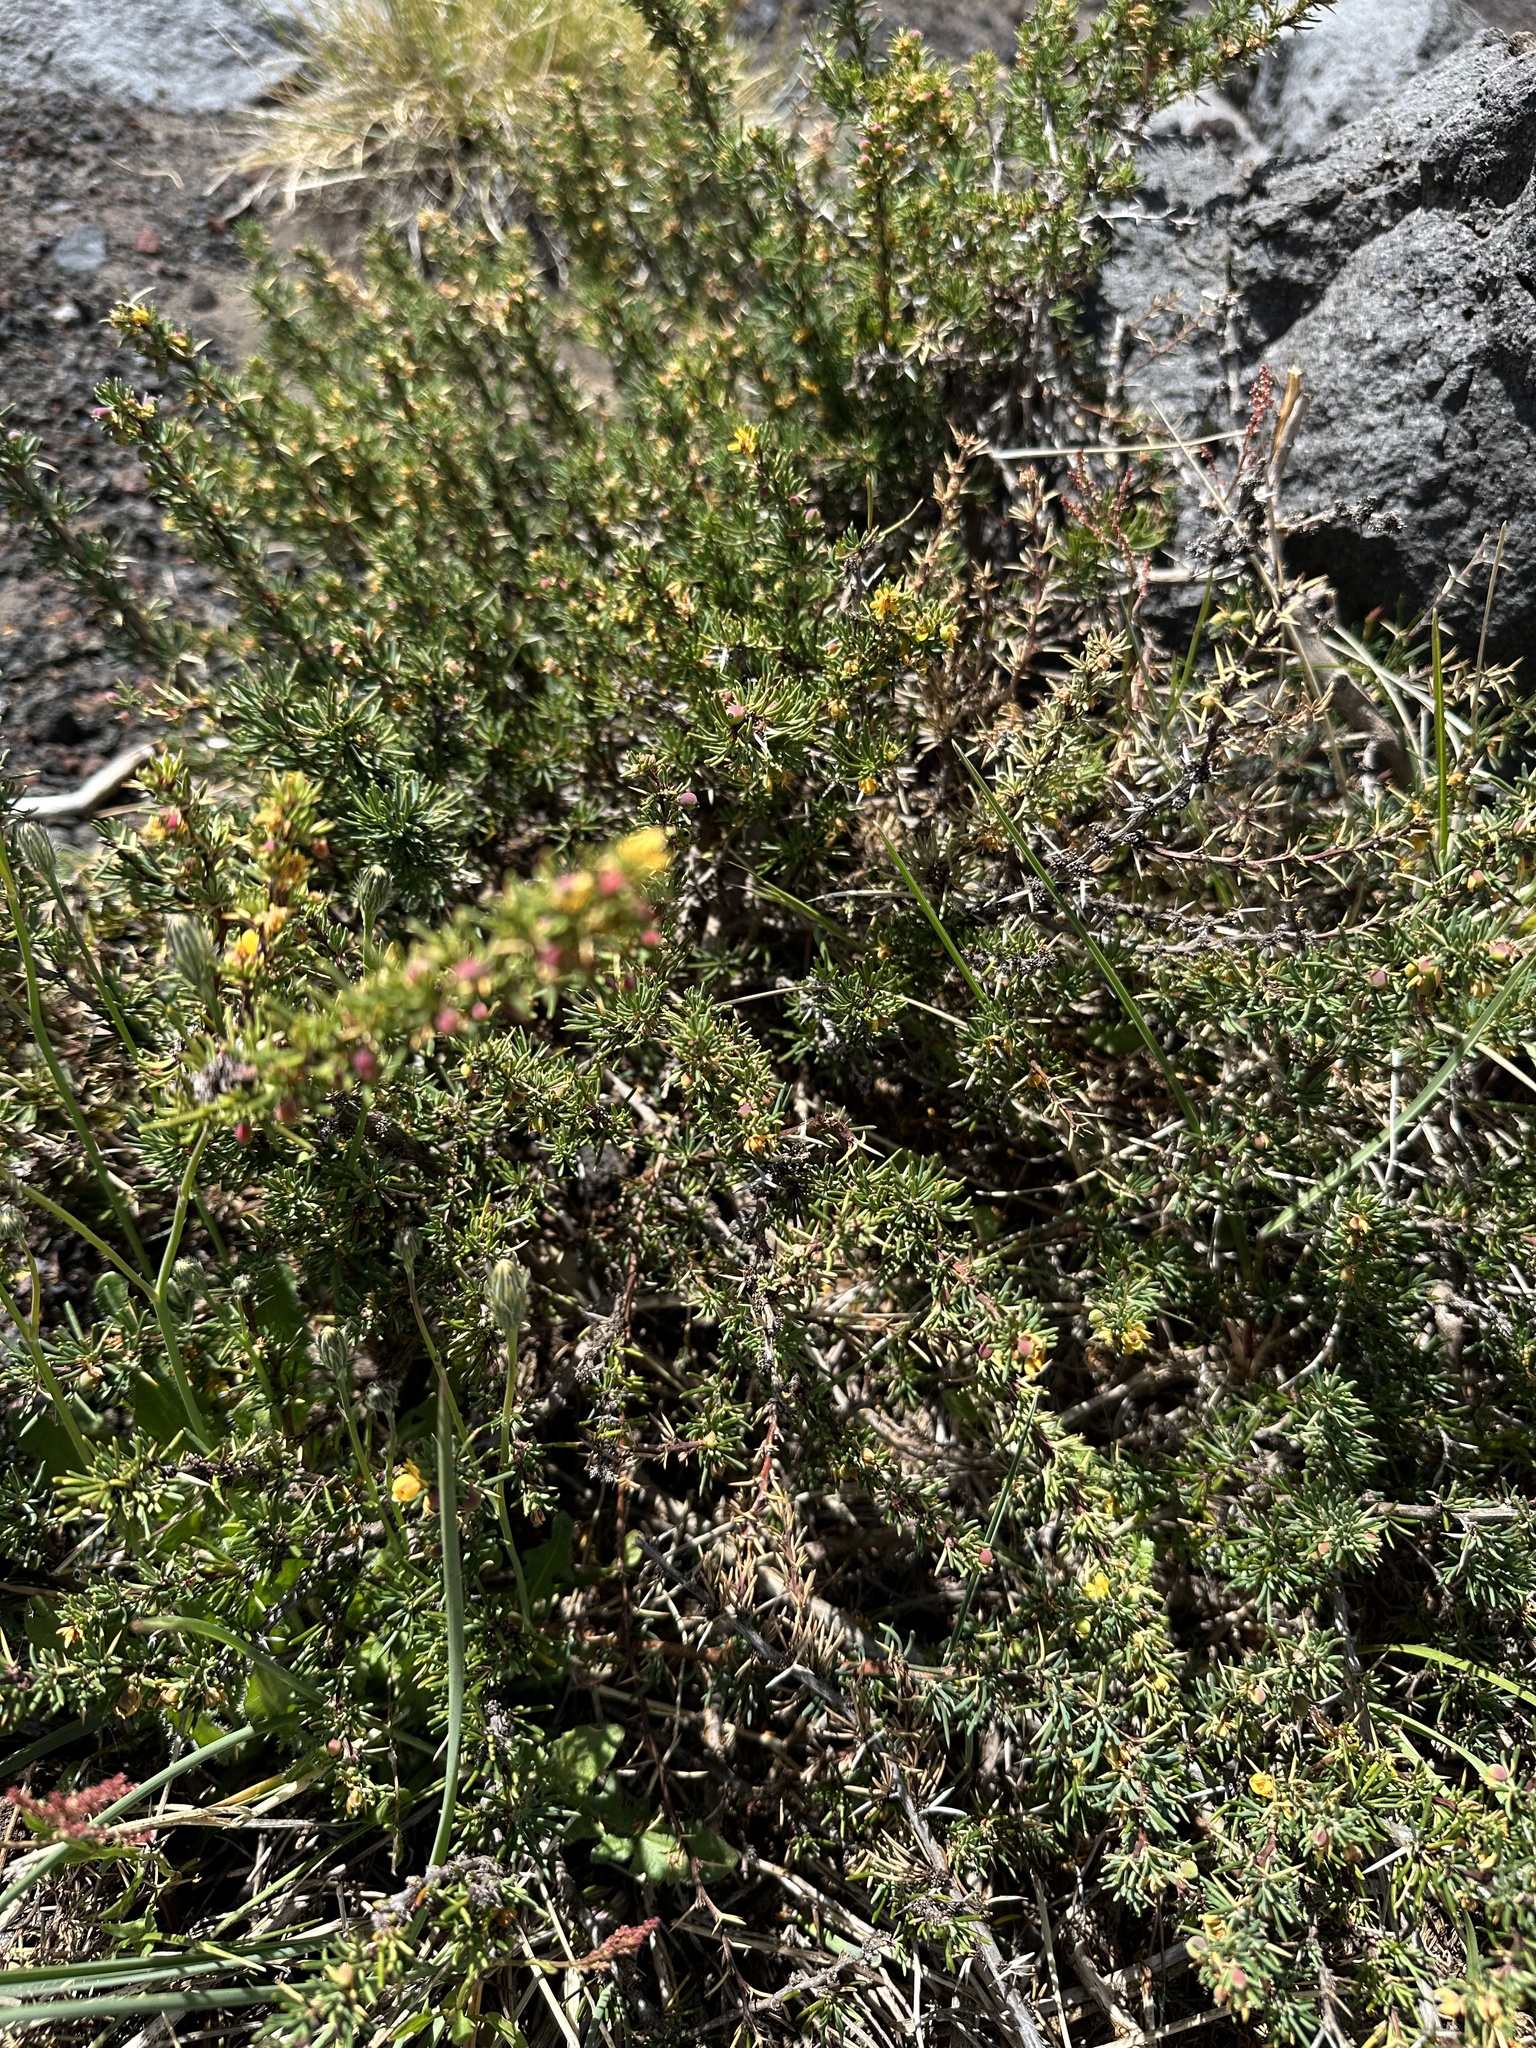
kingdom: Plantae
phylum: Tracheophyta
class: Magnoliopsida
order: Ranunculales
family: Berberidaceae
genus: Berberis
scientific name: Berberis empetrifolia
